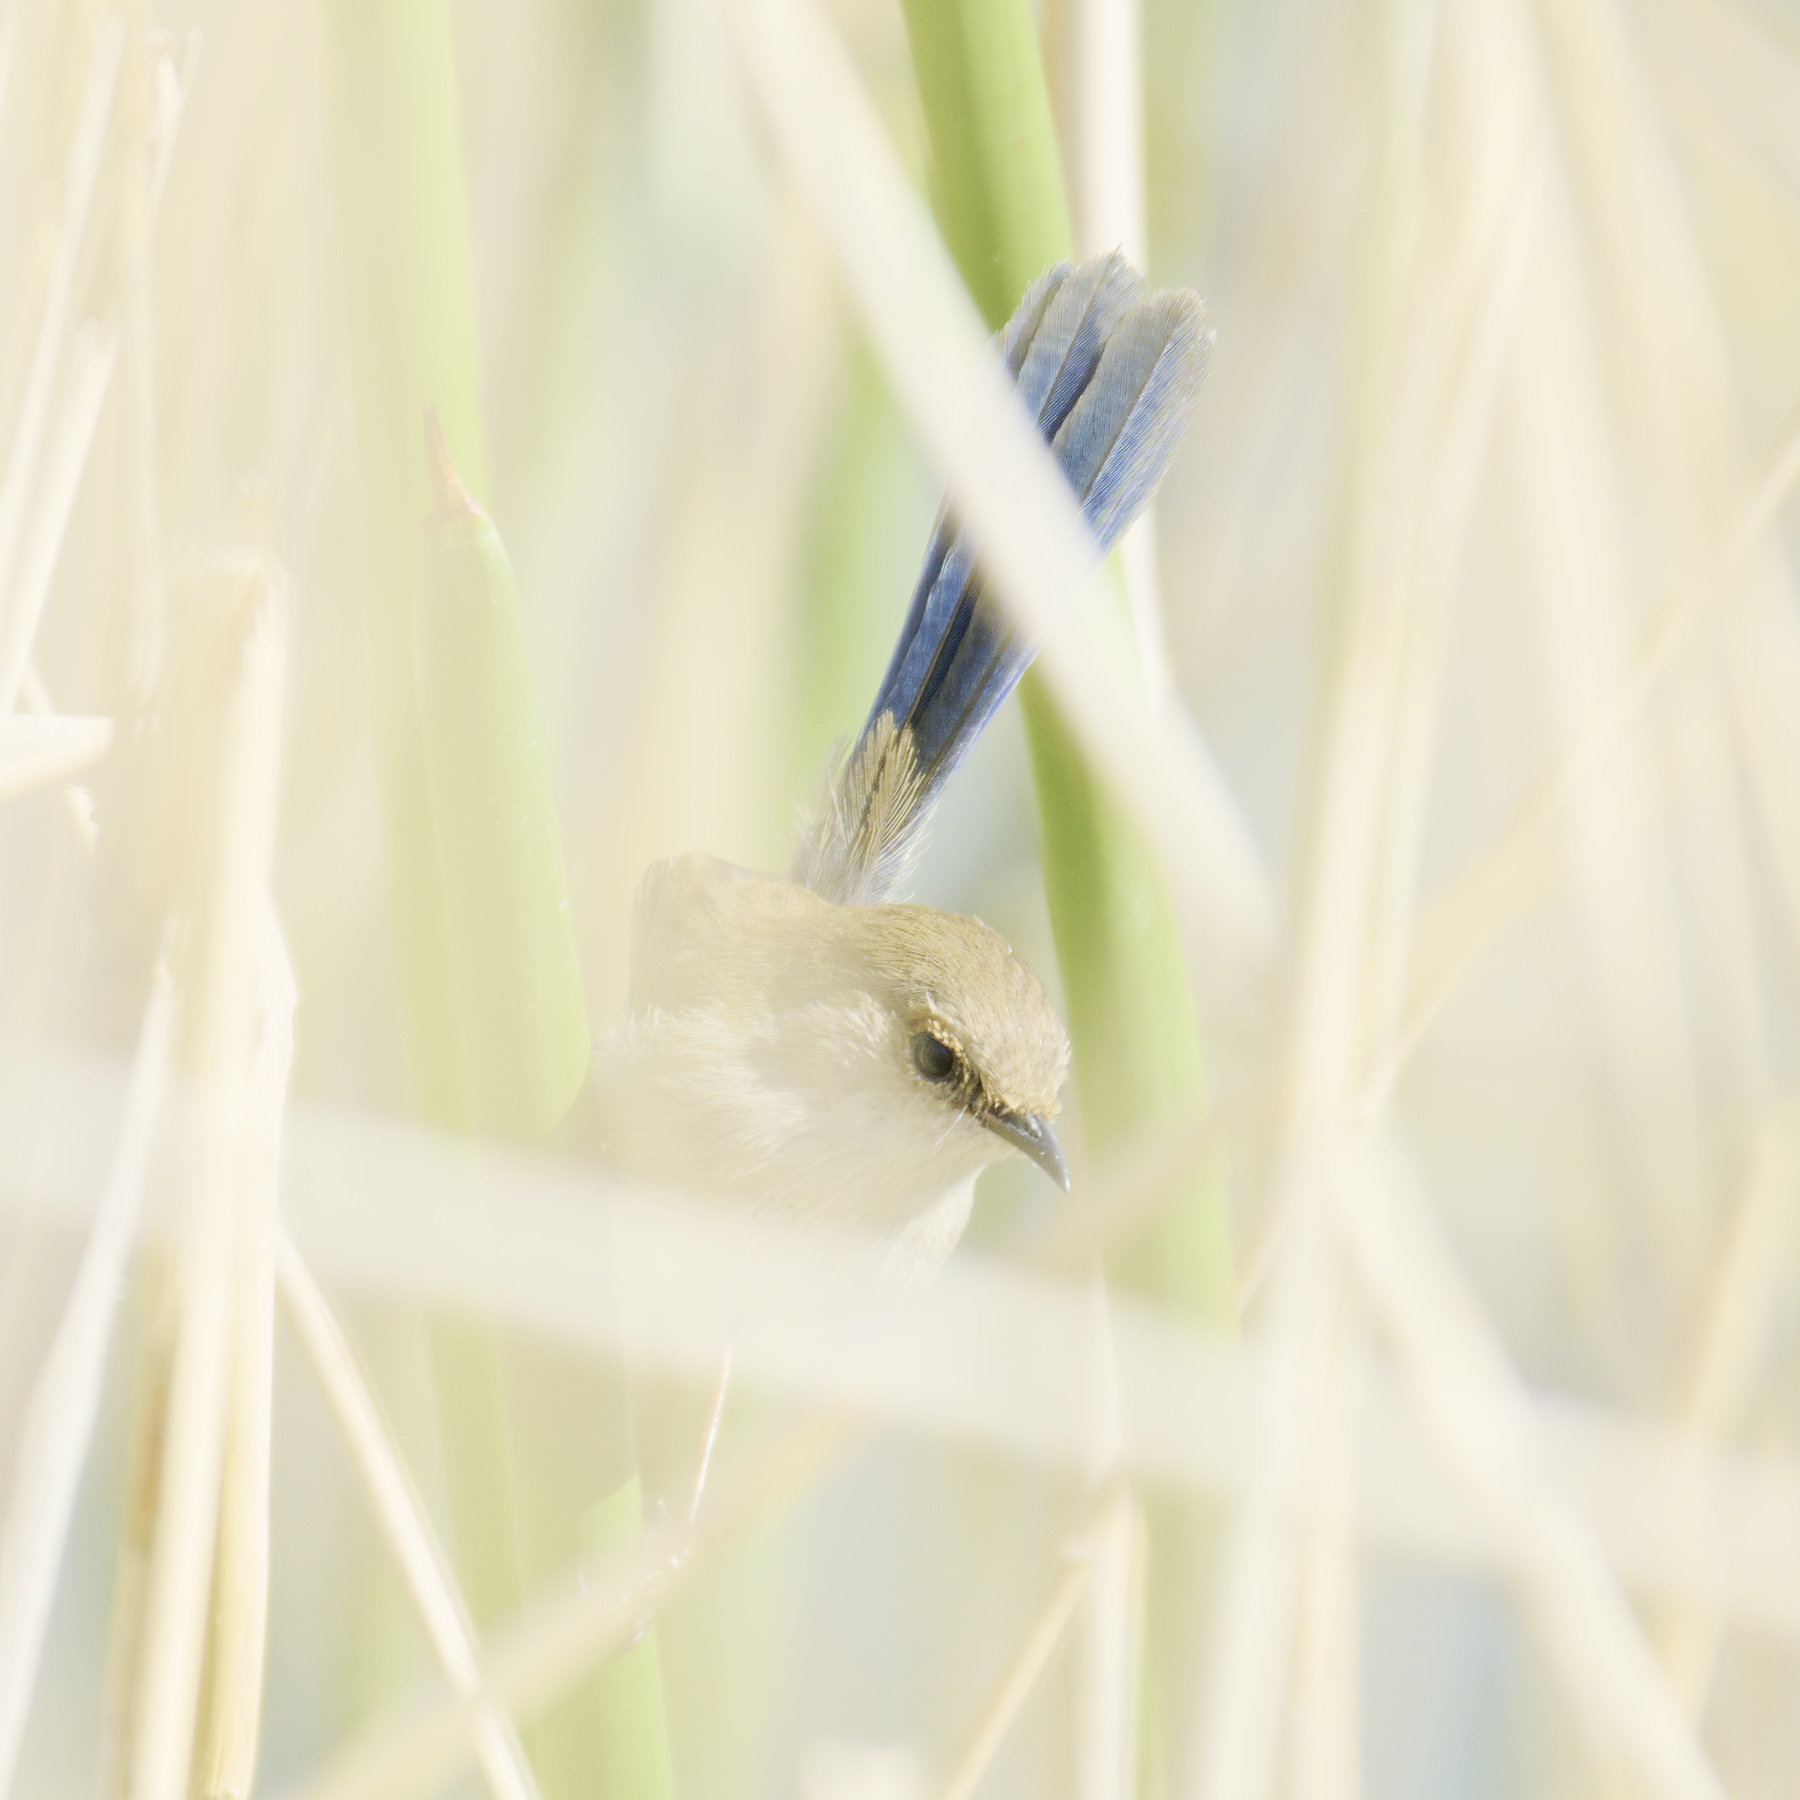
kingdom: Animalia
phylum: Chordata
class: Aves
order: Passeriformes
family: Maluridae
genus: Malurus
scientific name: Malurus cyaneus
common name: Superb fairywren
